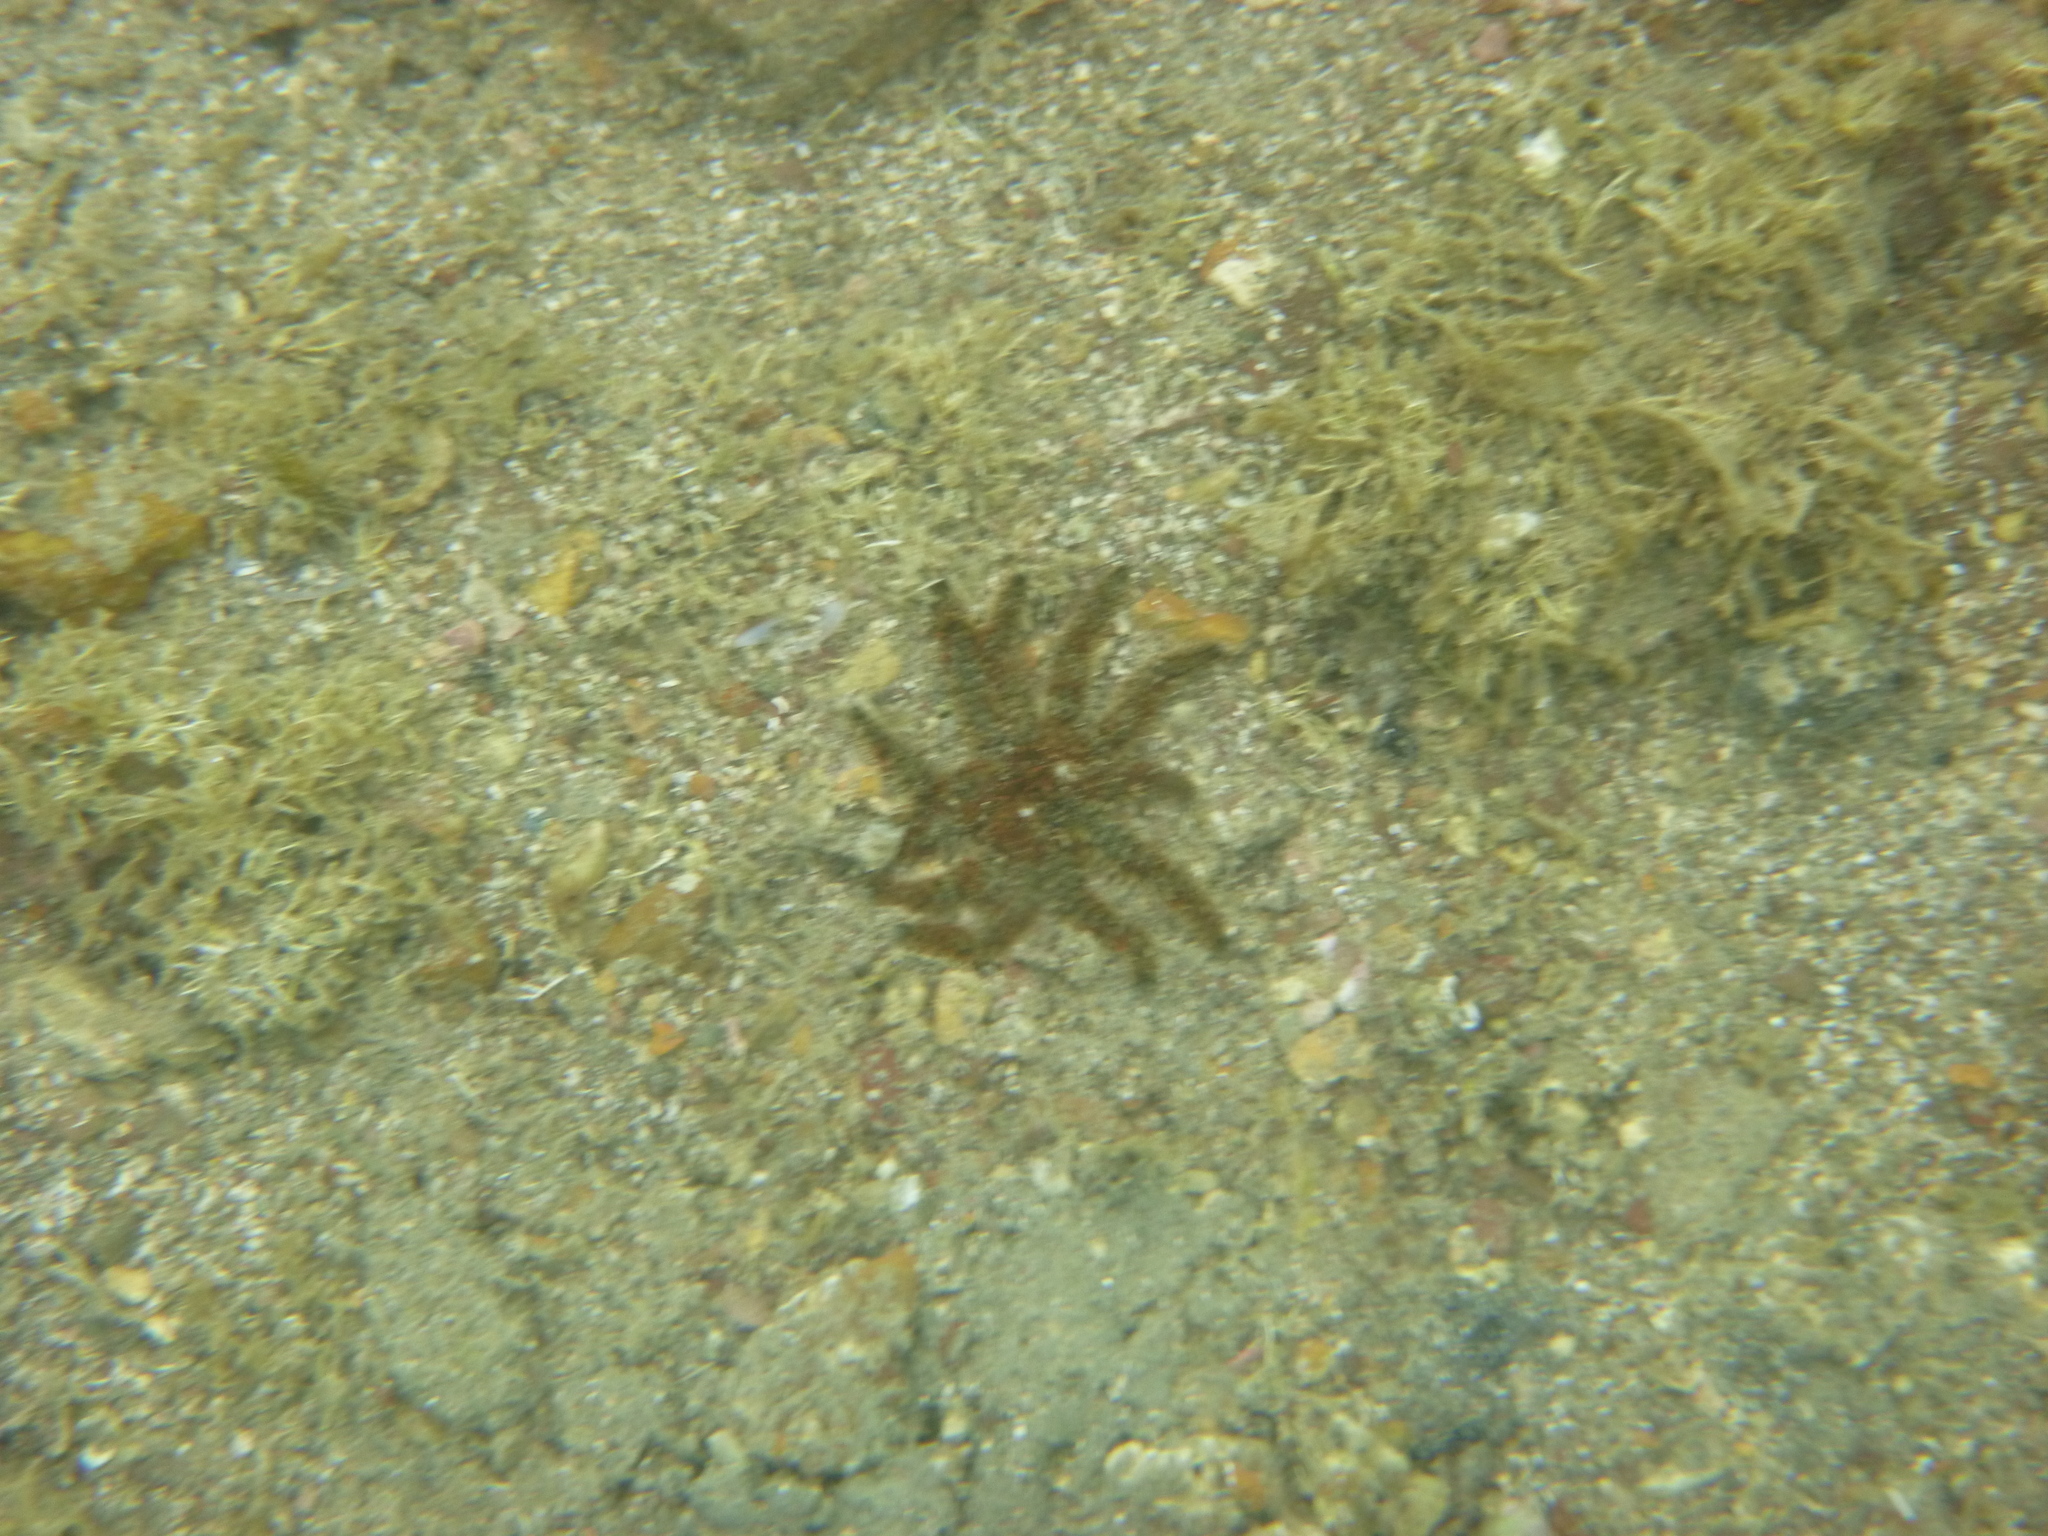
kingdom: Animalia
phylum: Echinodermata
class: Asteroidea
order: Forcipulatida
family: Asteriidae
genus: Coscinasterias
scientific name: Coscinasterias muricata
